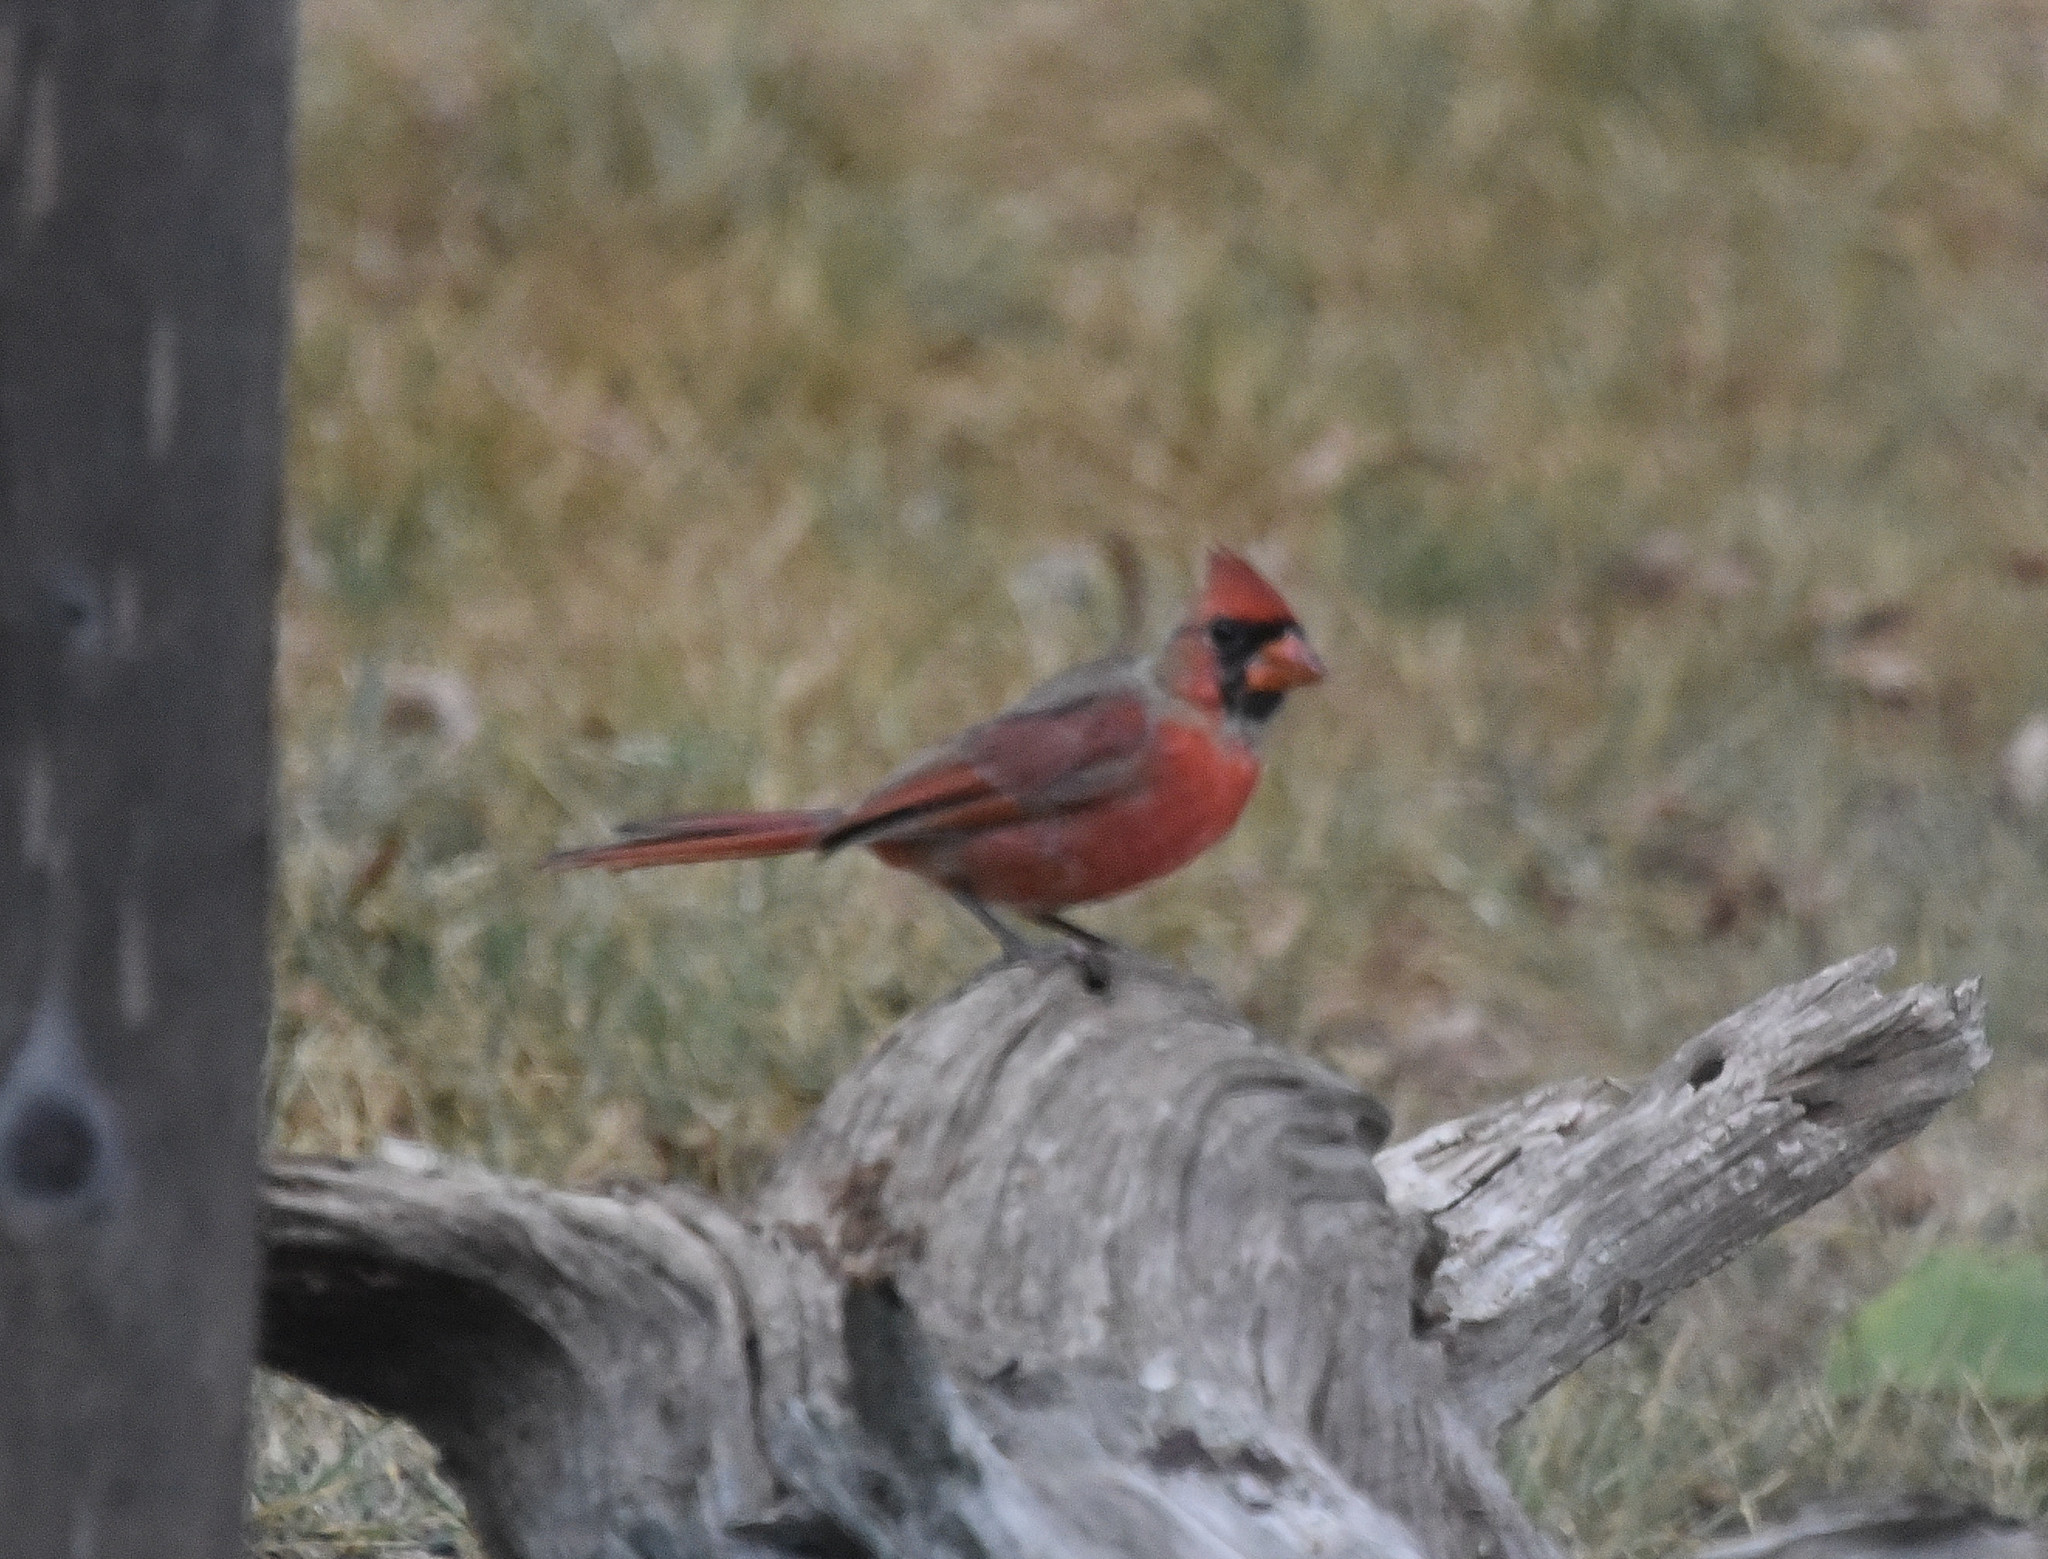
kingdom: Animalia
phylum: Chordata
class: Aves
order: Passeriformes
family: Cardinalidae
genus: Cardinalis
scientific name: Cardinalis cardinalis
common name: Northern cardinal
